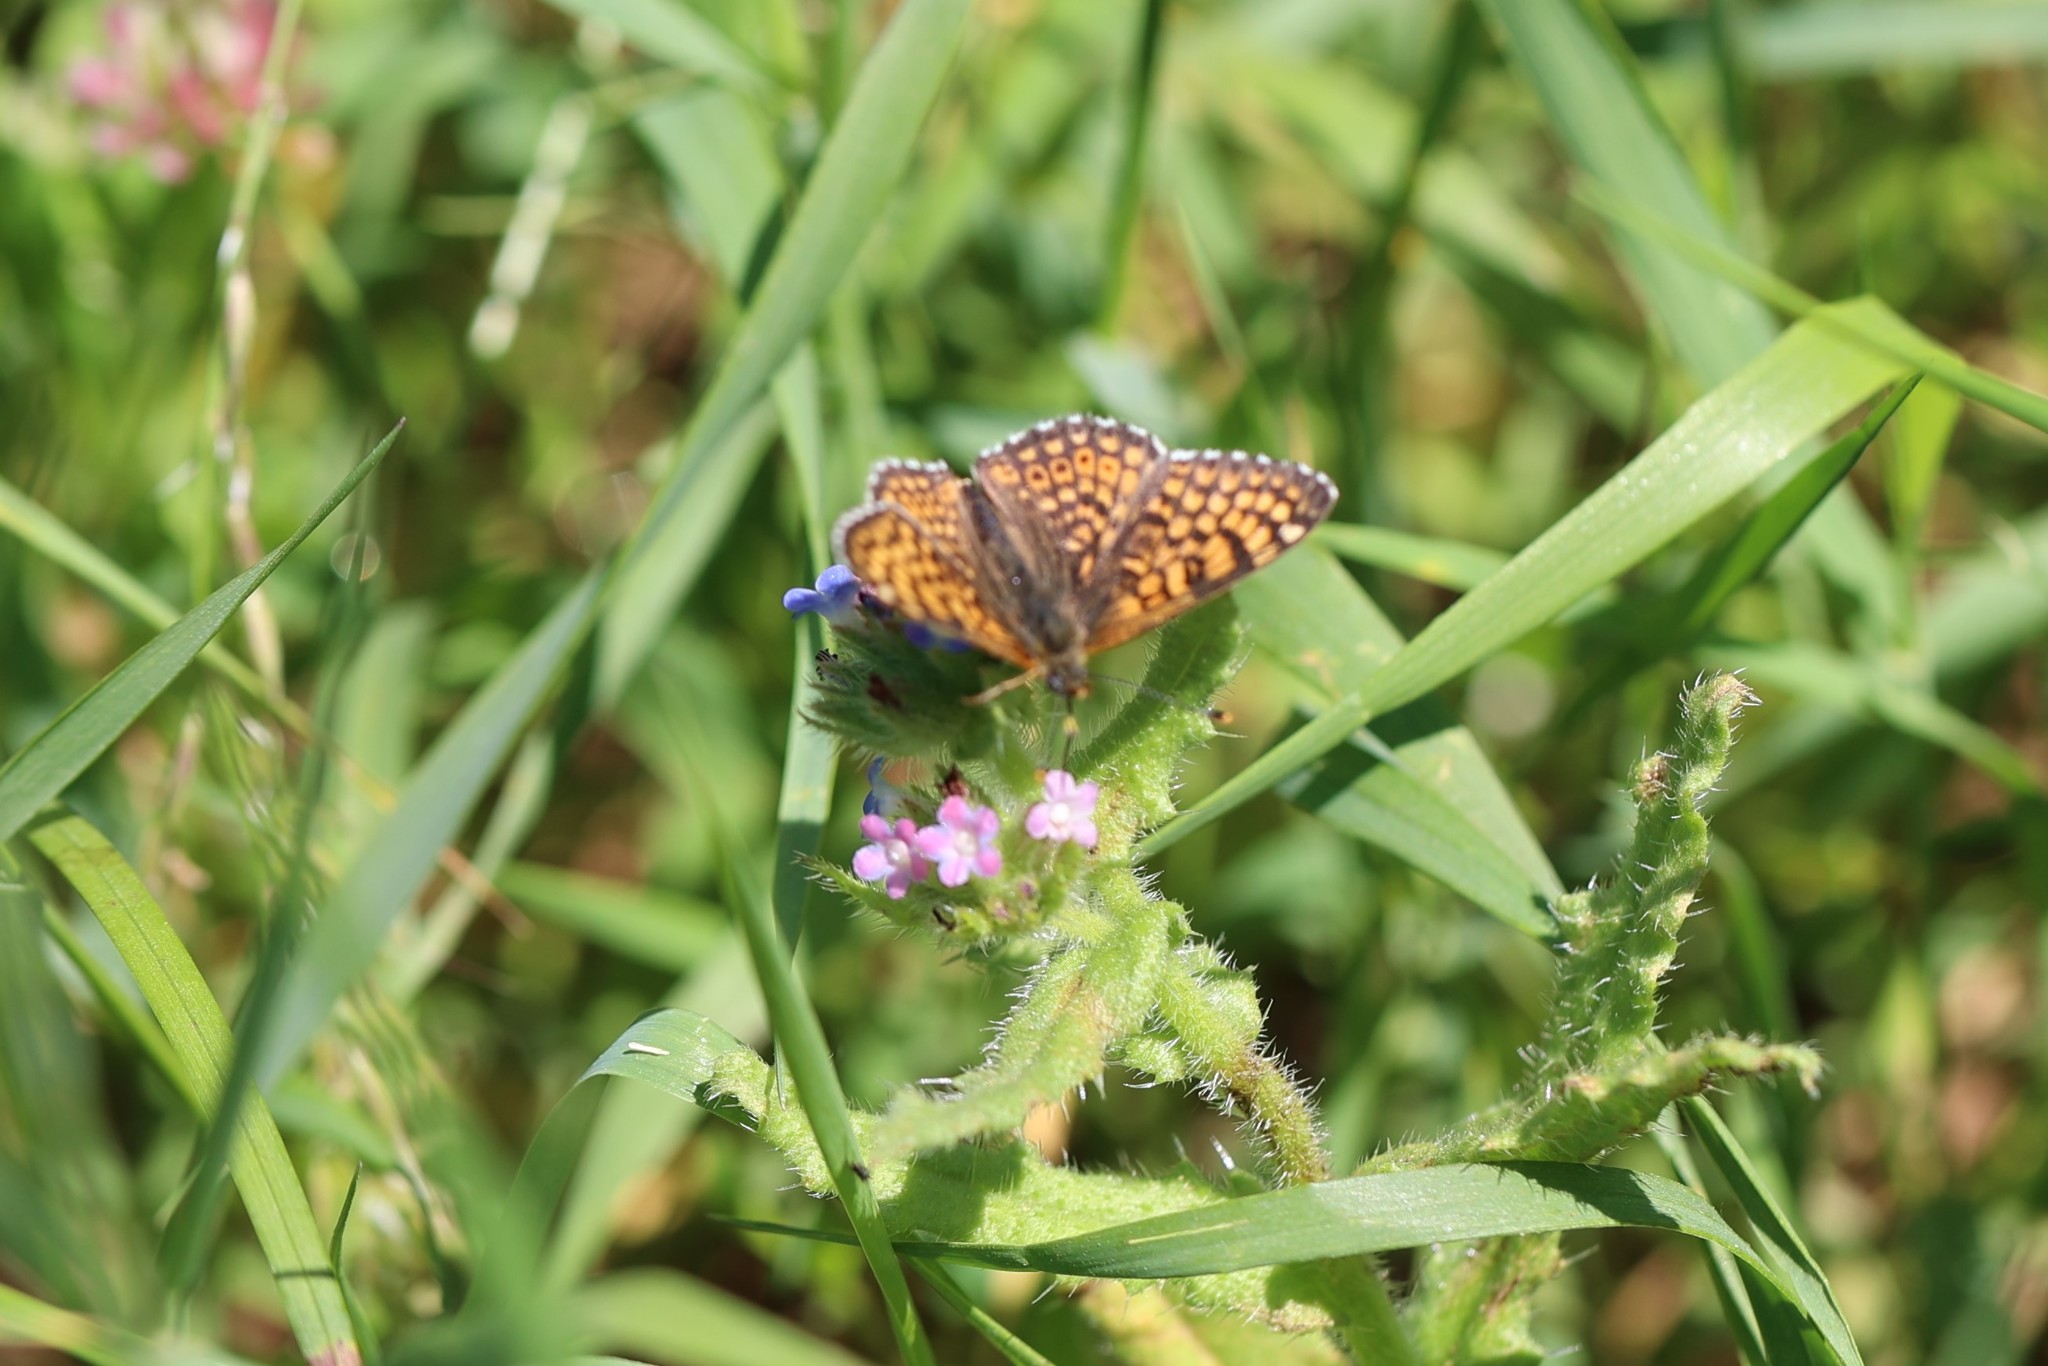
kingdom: Animalia
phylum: Arthropoda
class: Insecta
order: Lepidoptera
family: Nymphalidae
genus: Melitaea
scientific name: Melitaea cinxia
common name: Glanville fritillary
